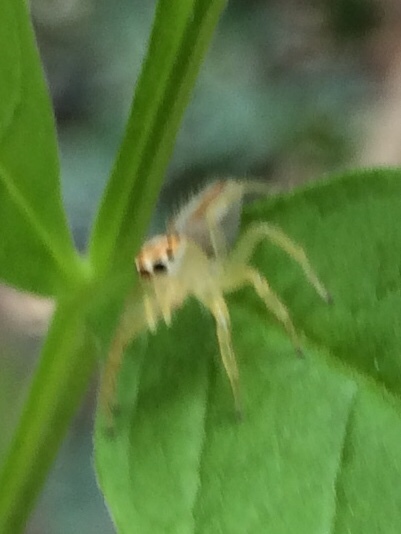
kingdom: Animalia
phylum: Arthropoda
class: Arachnida
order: Araneae
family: Salticidae
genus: Telamonia
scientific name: Telamonia dimidiata
